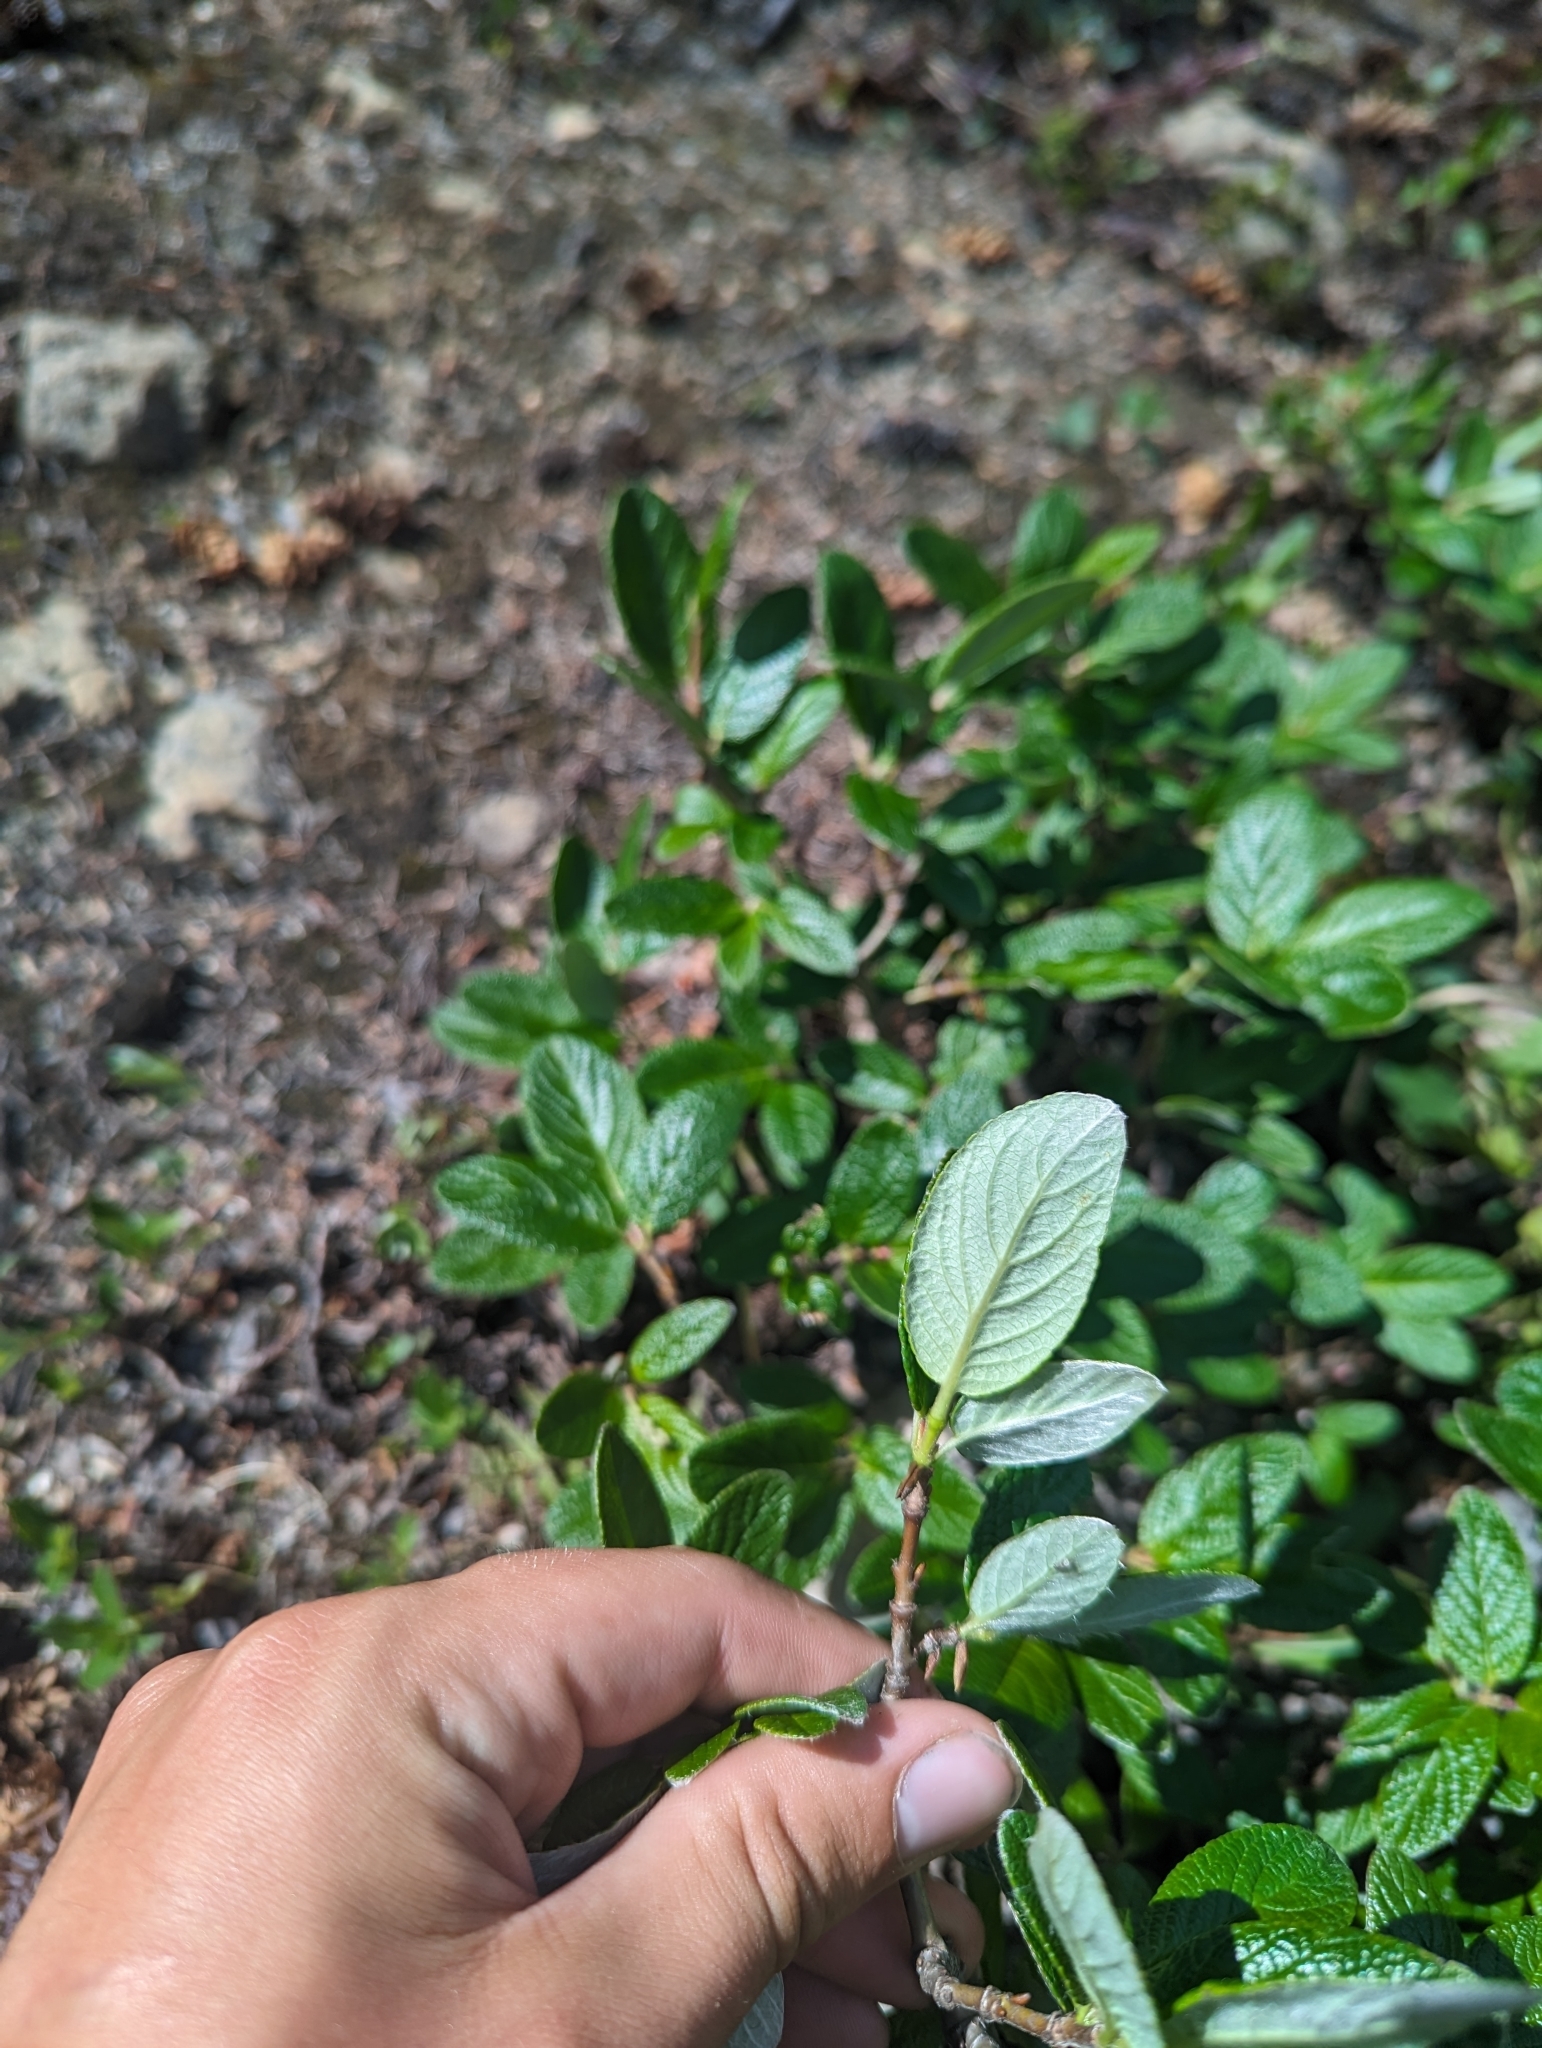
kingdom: Plantae
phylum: Tracheophyta
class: Magnoliopsida
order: Malpighiales
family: Salicaceae
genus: Salix
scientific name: Salix vestita
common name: Hairy willow
